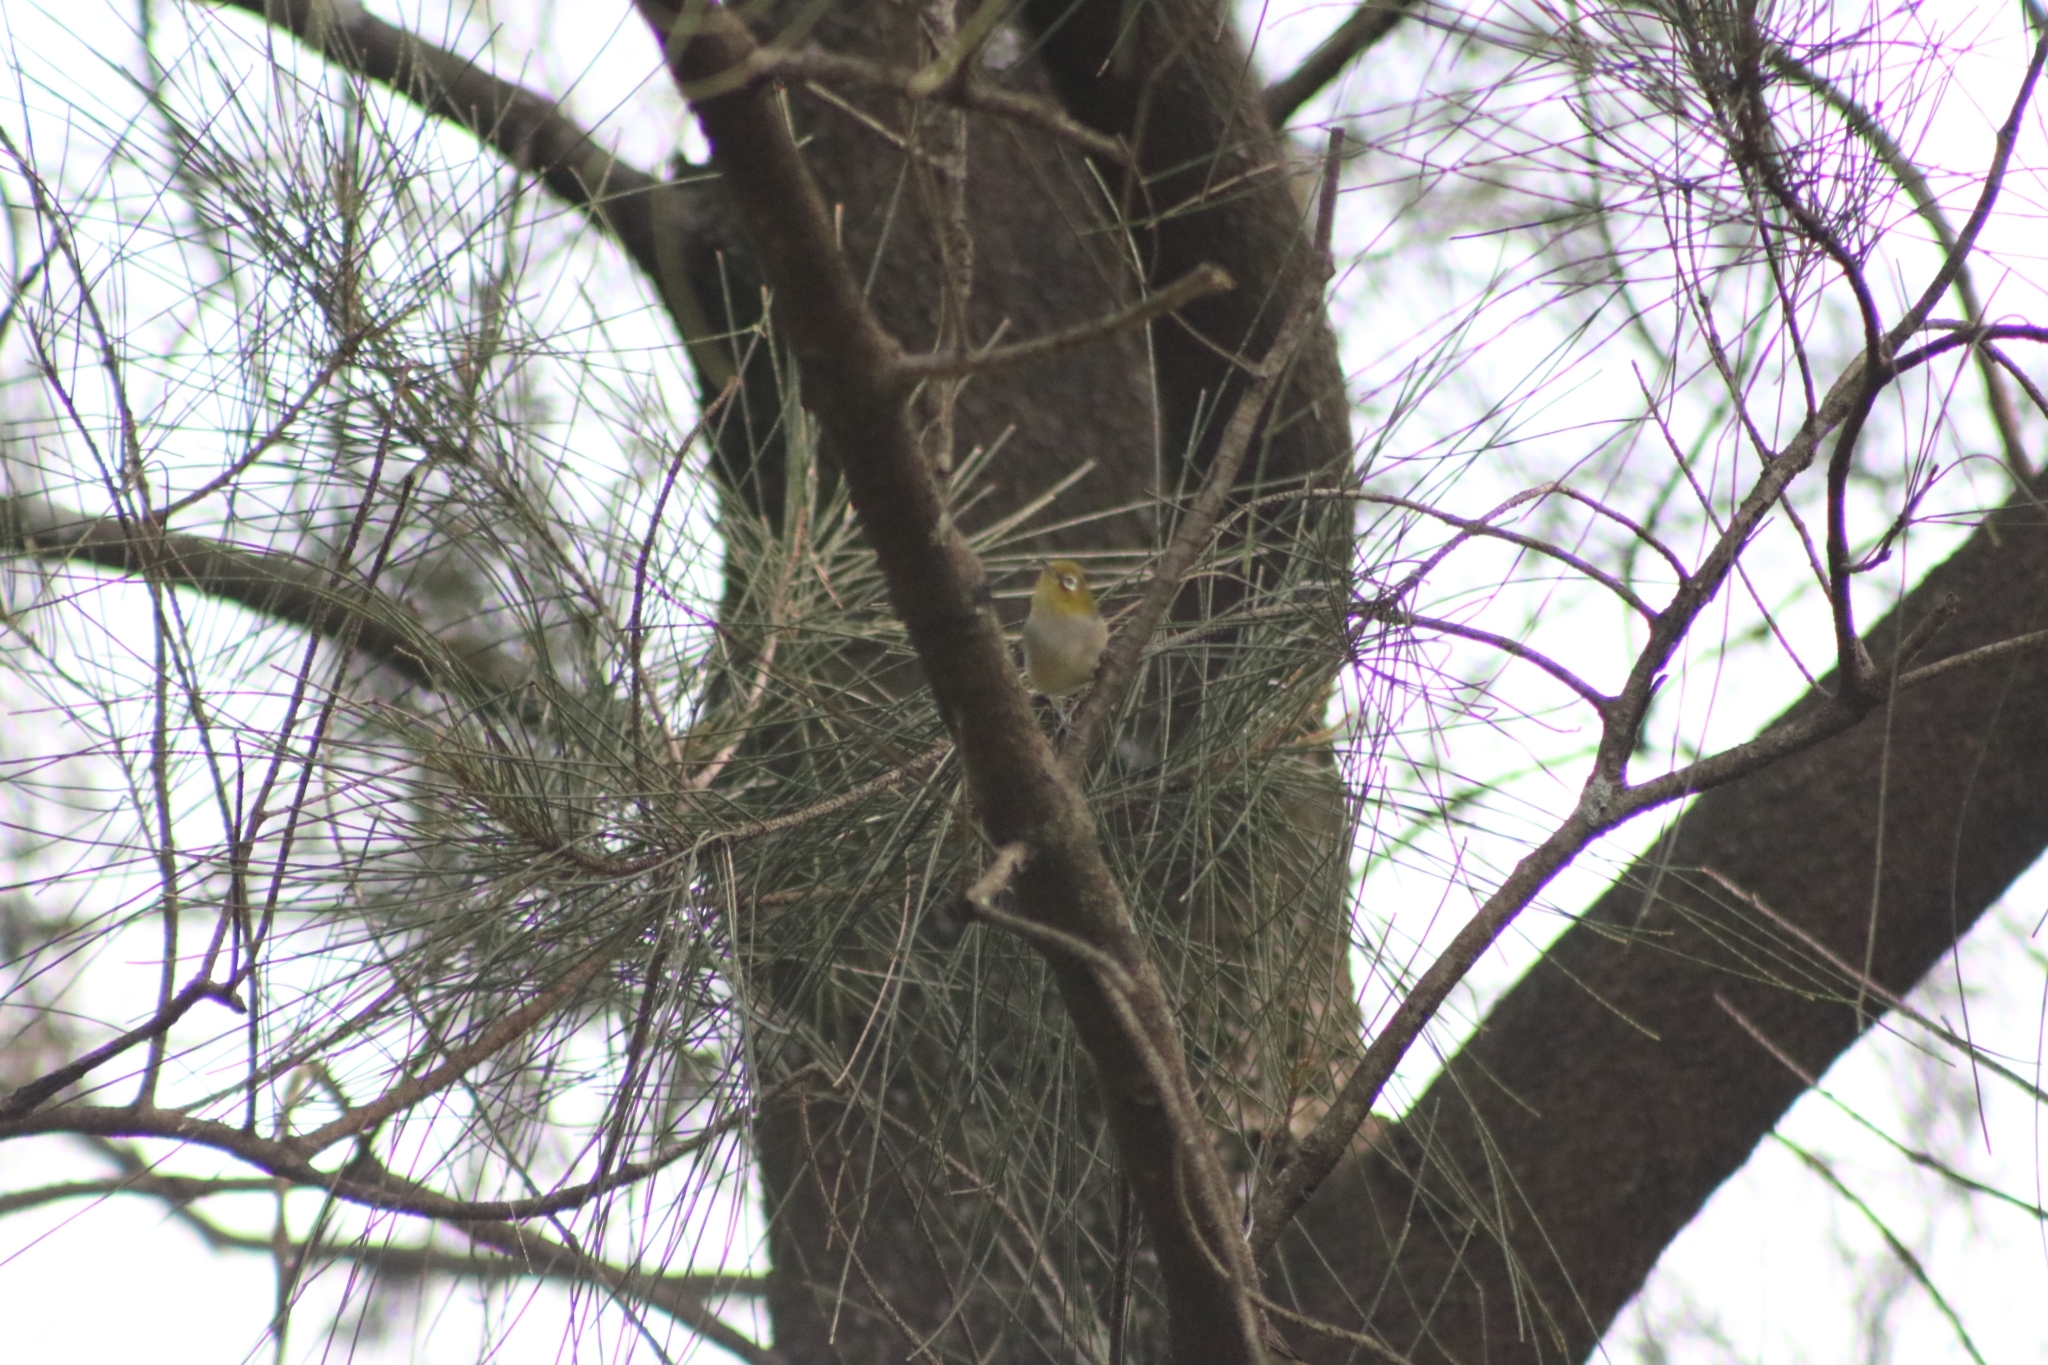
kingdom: Animalia
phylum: Chordata
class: Aves
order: Passeriformes
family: Zosteropidae
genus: Zosterops
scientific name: Zosterops lateralis
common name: Silvereye
